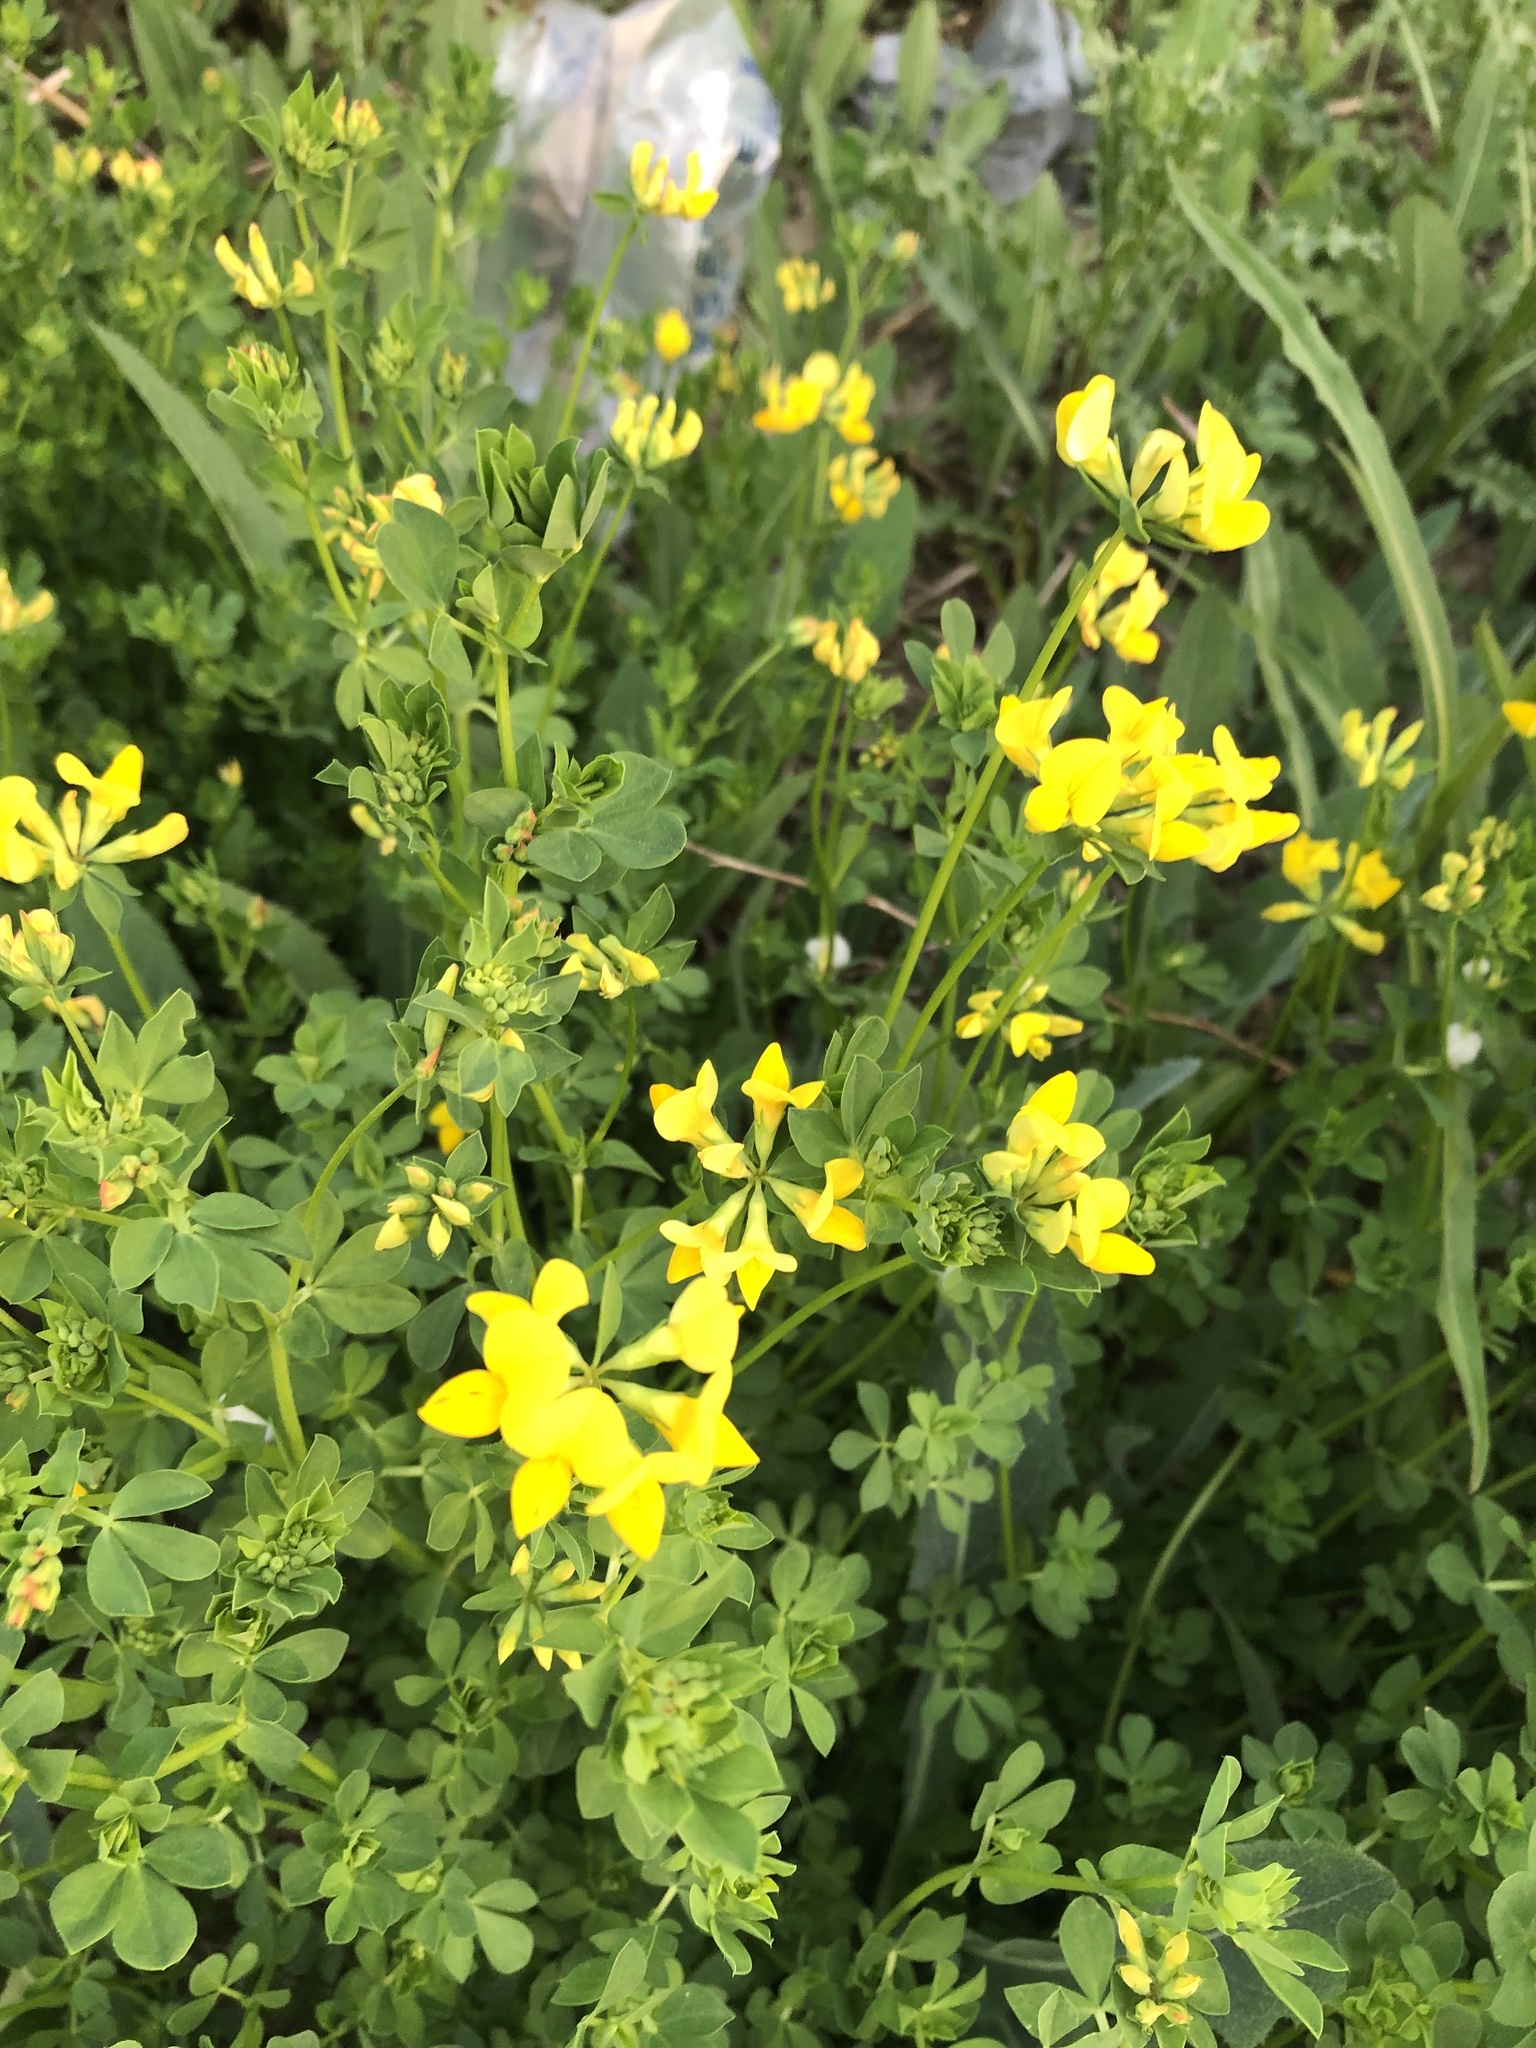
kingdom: Plantae
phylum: Tracheophyta
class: Magnoliopsida
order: Fabales
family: Fabaceae
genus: Lotus
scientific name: Lotus corniculatus
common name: Common bird's-foot-trefoil
